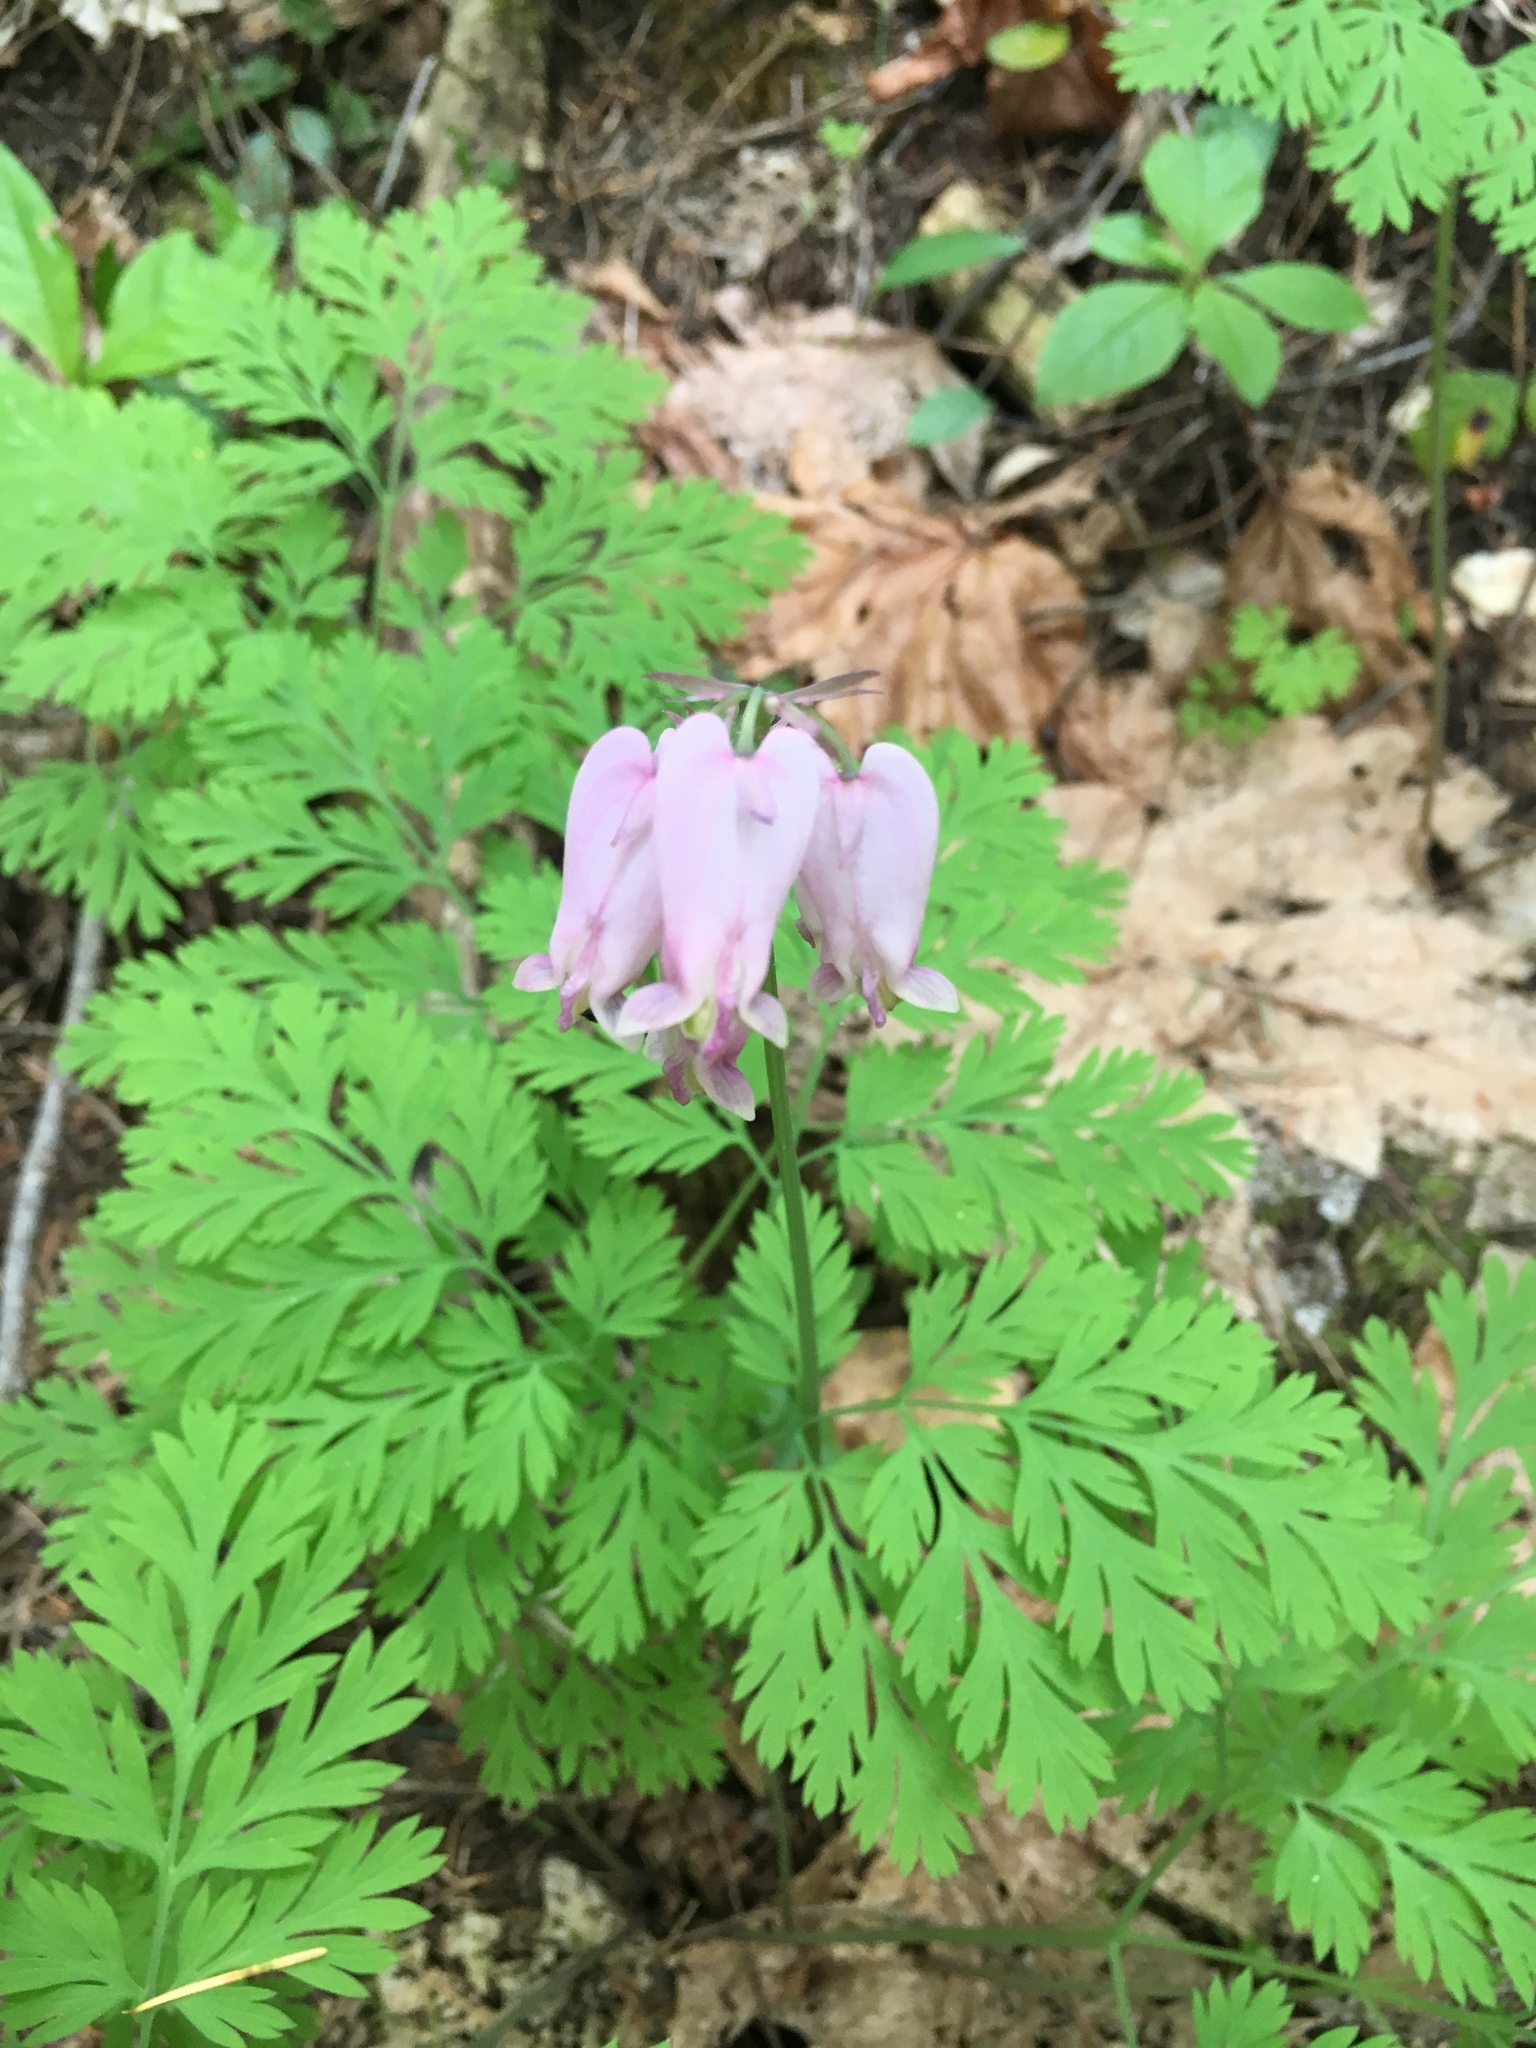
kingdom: Plantae
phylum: Tracheophyta
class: Magnoliopsida
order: Ranunculales
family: Papaveraceae
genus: Dicentra
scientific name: Dicentra formosa
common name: Bleeding-heart
